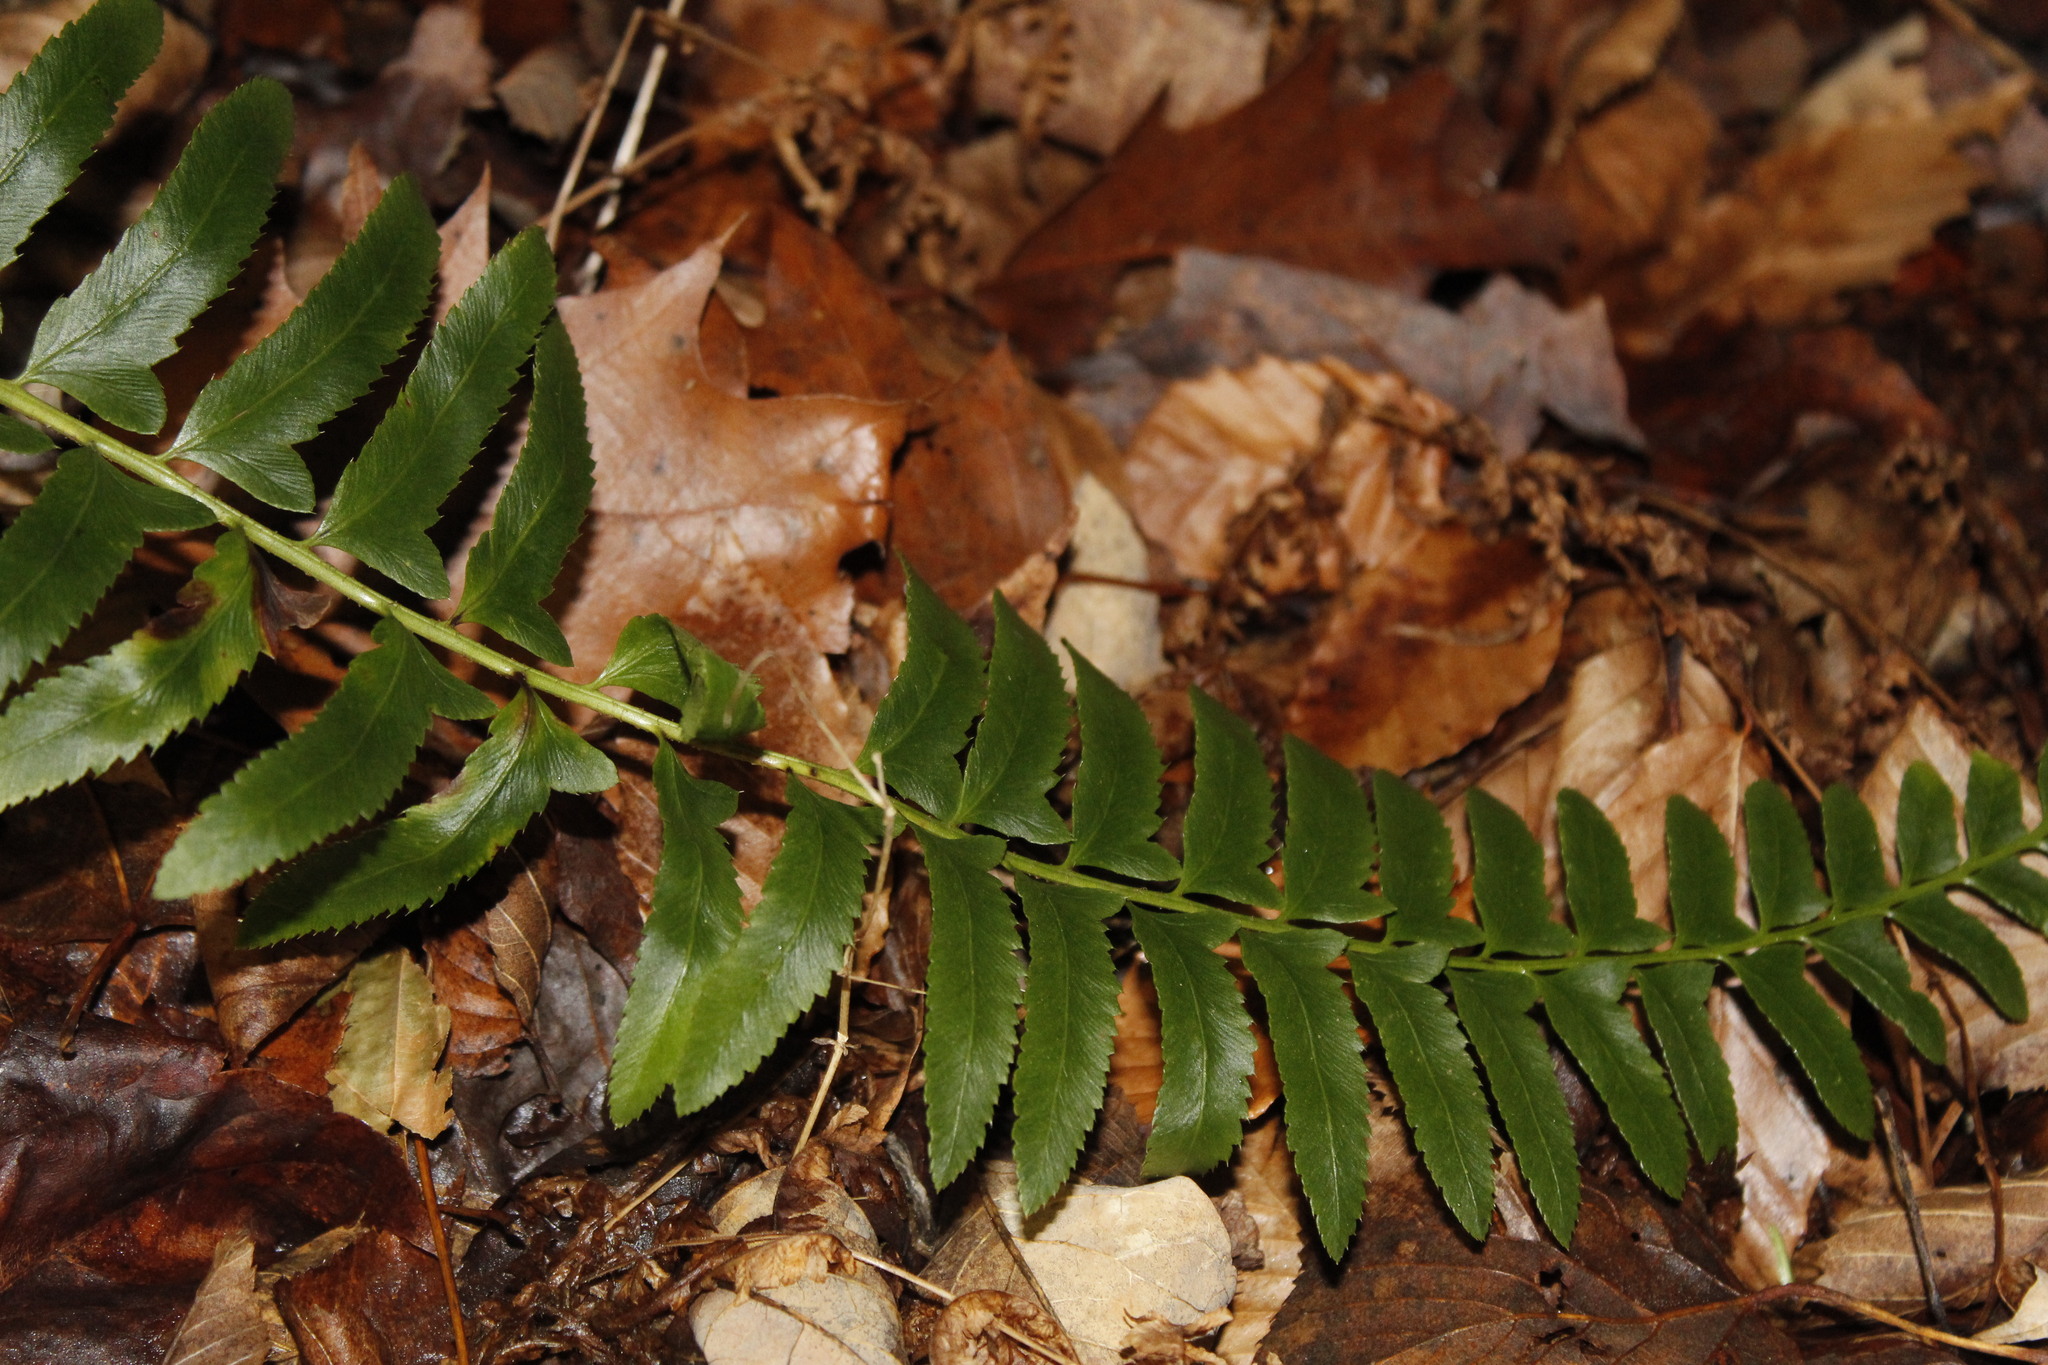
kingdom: Plantae
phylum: Tracheophyta
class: Polypodiopsida
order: Polypodiales
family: Dryopteridaceae
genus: Polystichum
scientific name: Polystichum acrostichoides
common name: Christmas fern
